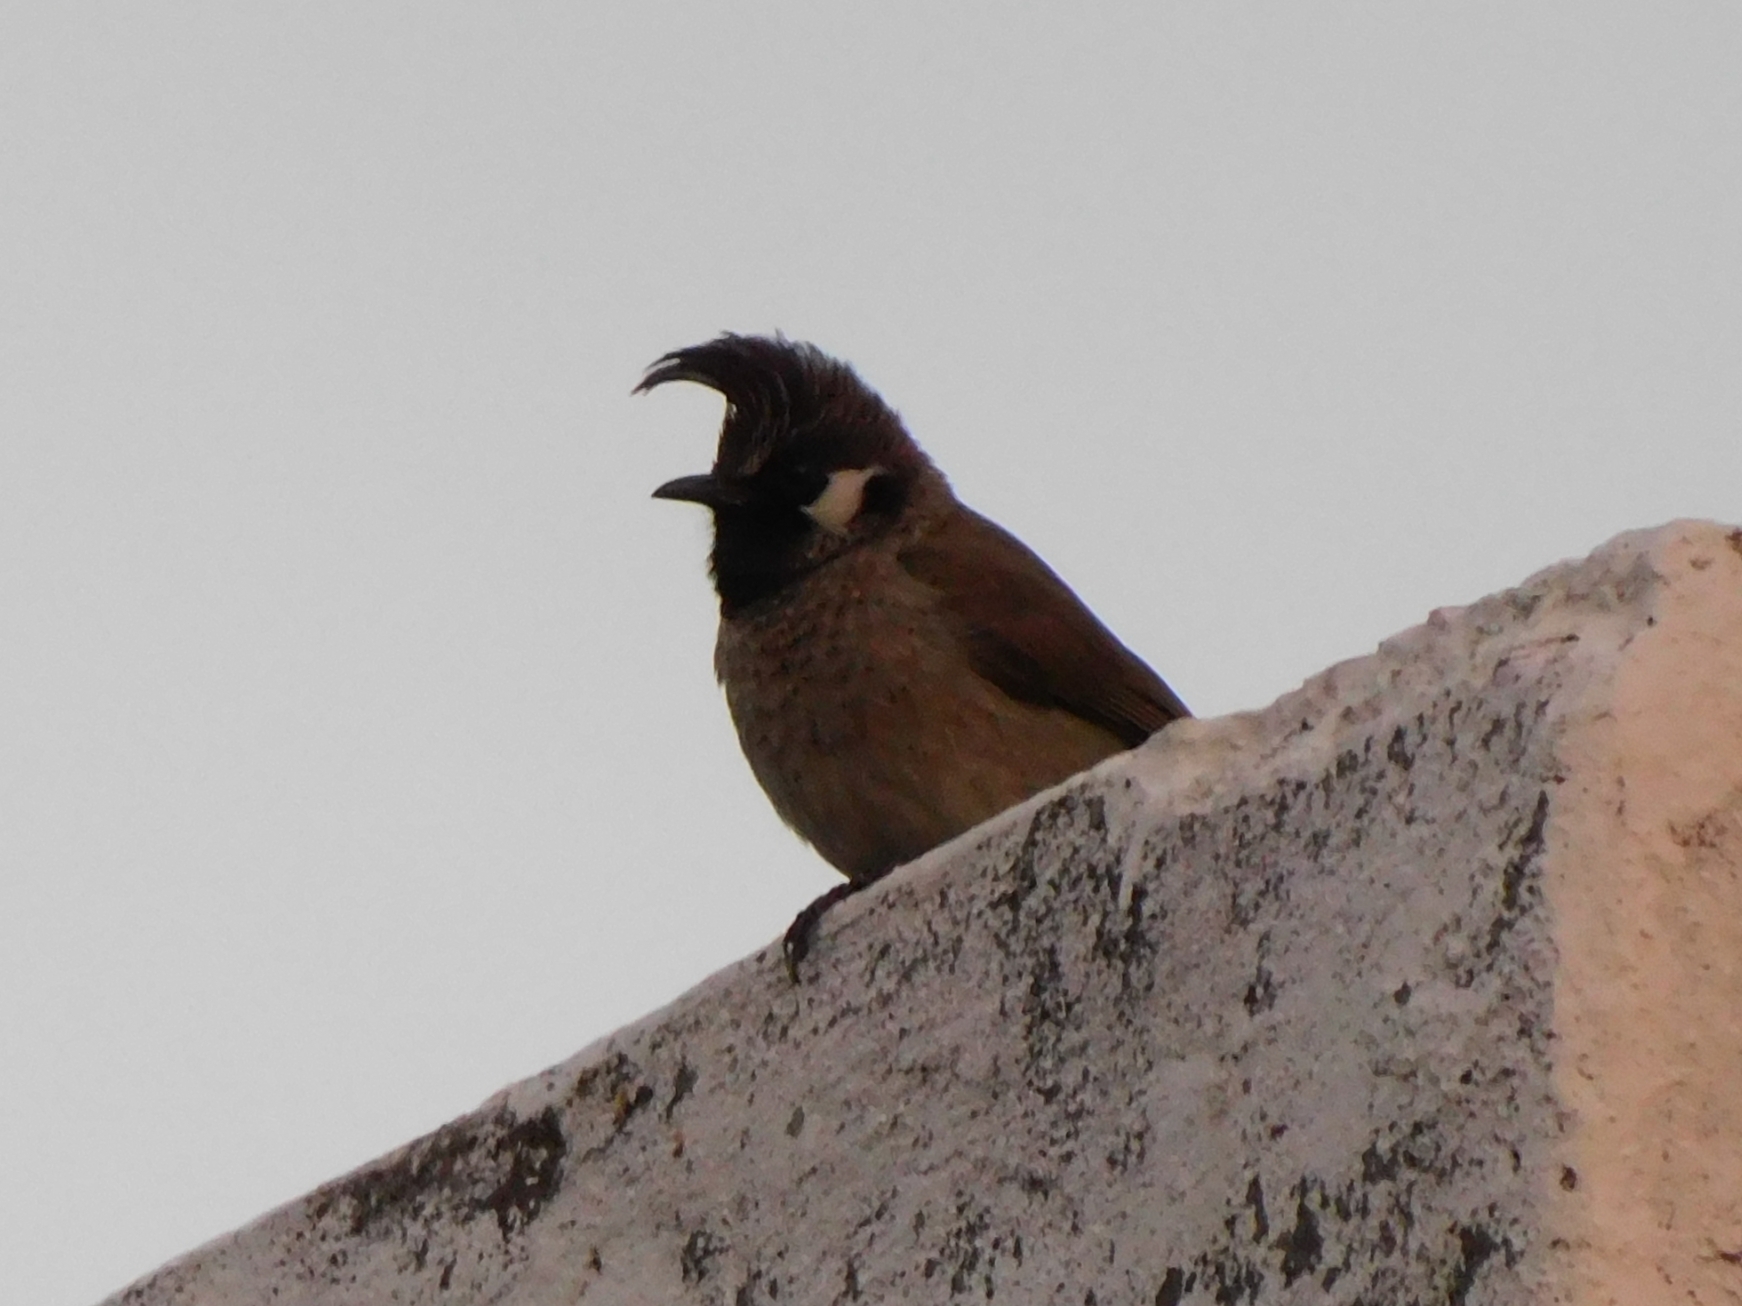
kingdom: Animalia
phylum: Chordata
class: Aves
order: Passeriformes
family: Pycnonotidae
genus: Pycnonotus
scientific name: Pycnonotus leucogenys
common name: Himalayan bulbul
